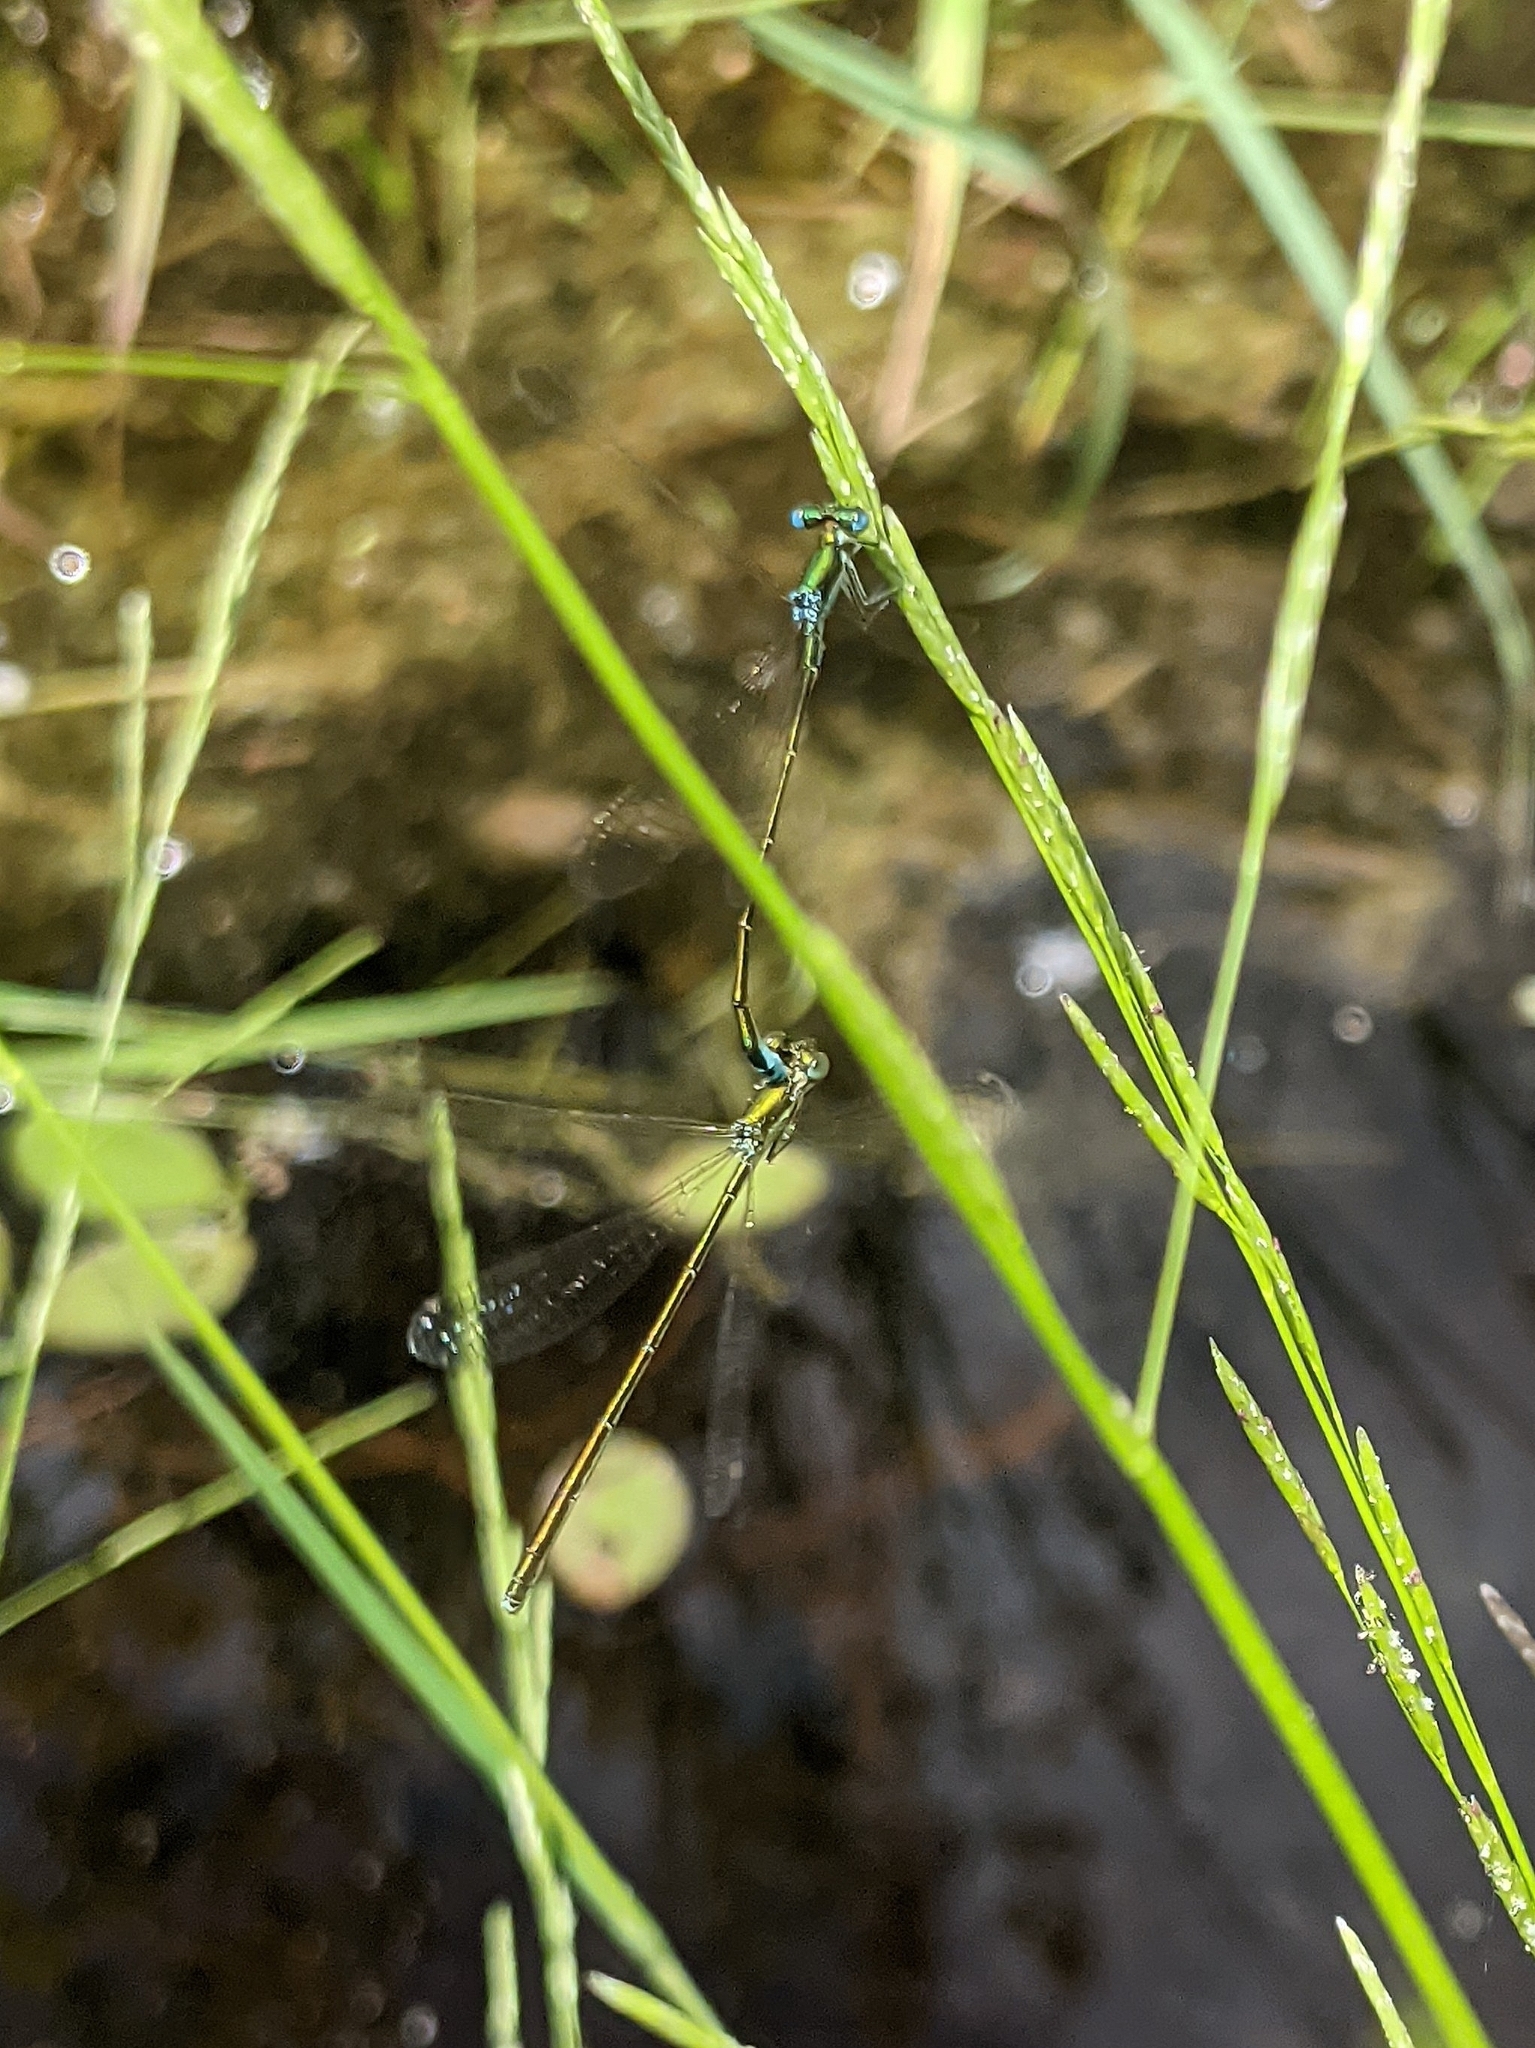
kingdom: Animalia
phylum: Arthropoda
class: Insecta
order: Odonata
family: Coenagrionidae
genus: Nehalennia
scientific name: Nehalennia irene
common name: Sedge sprite
